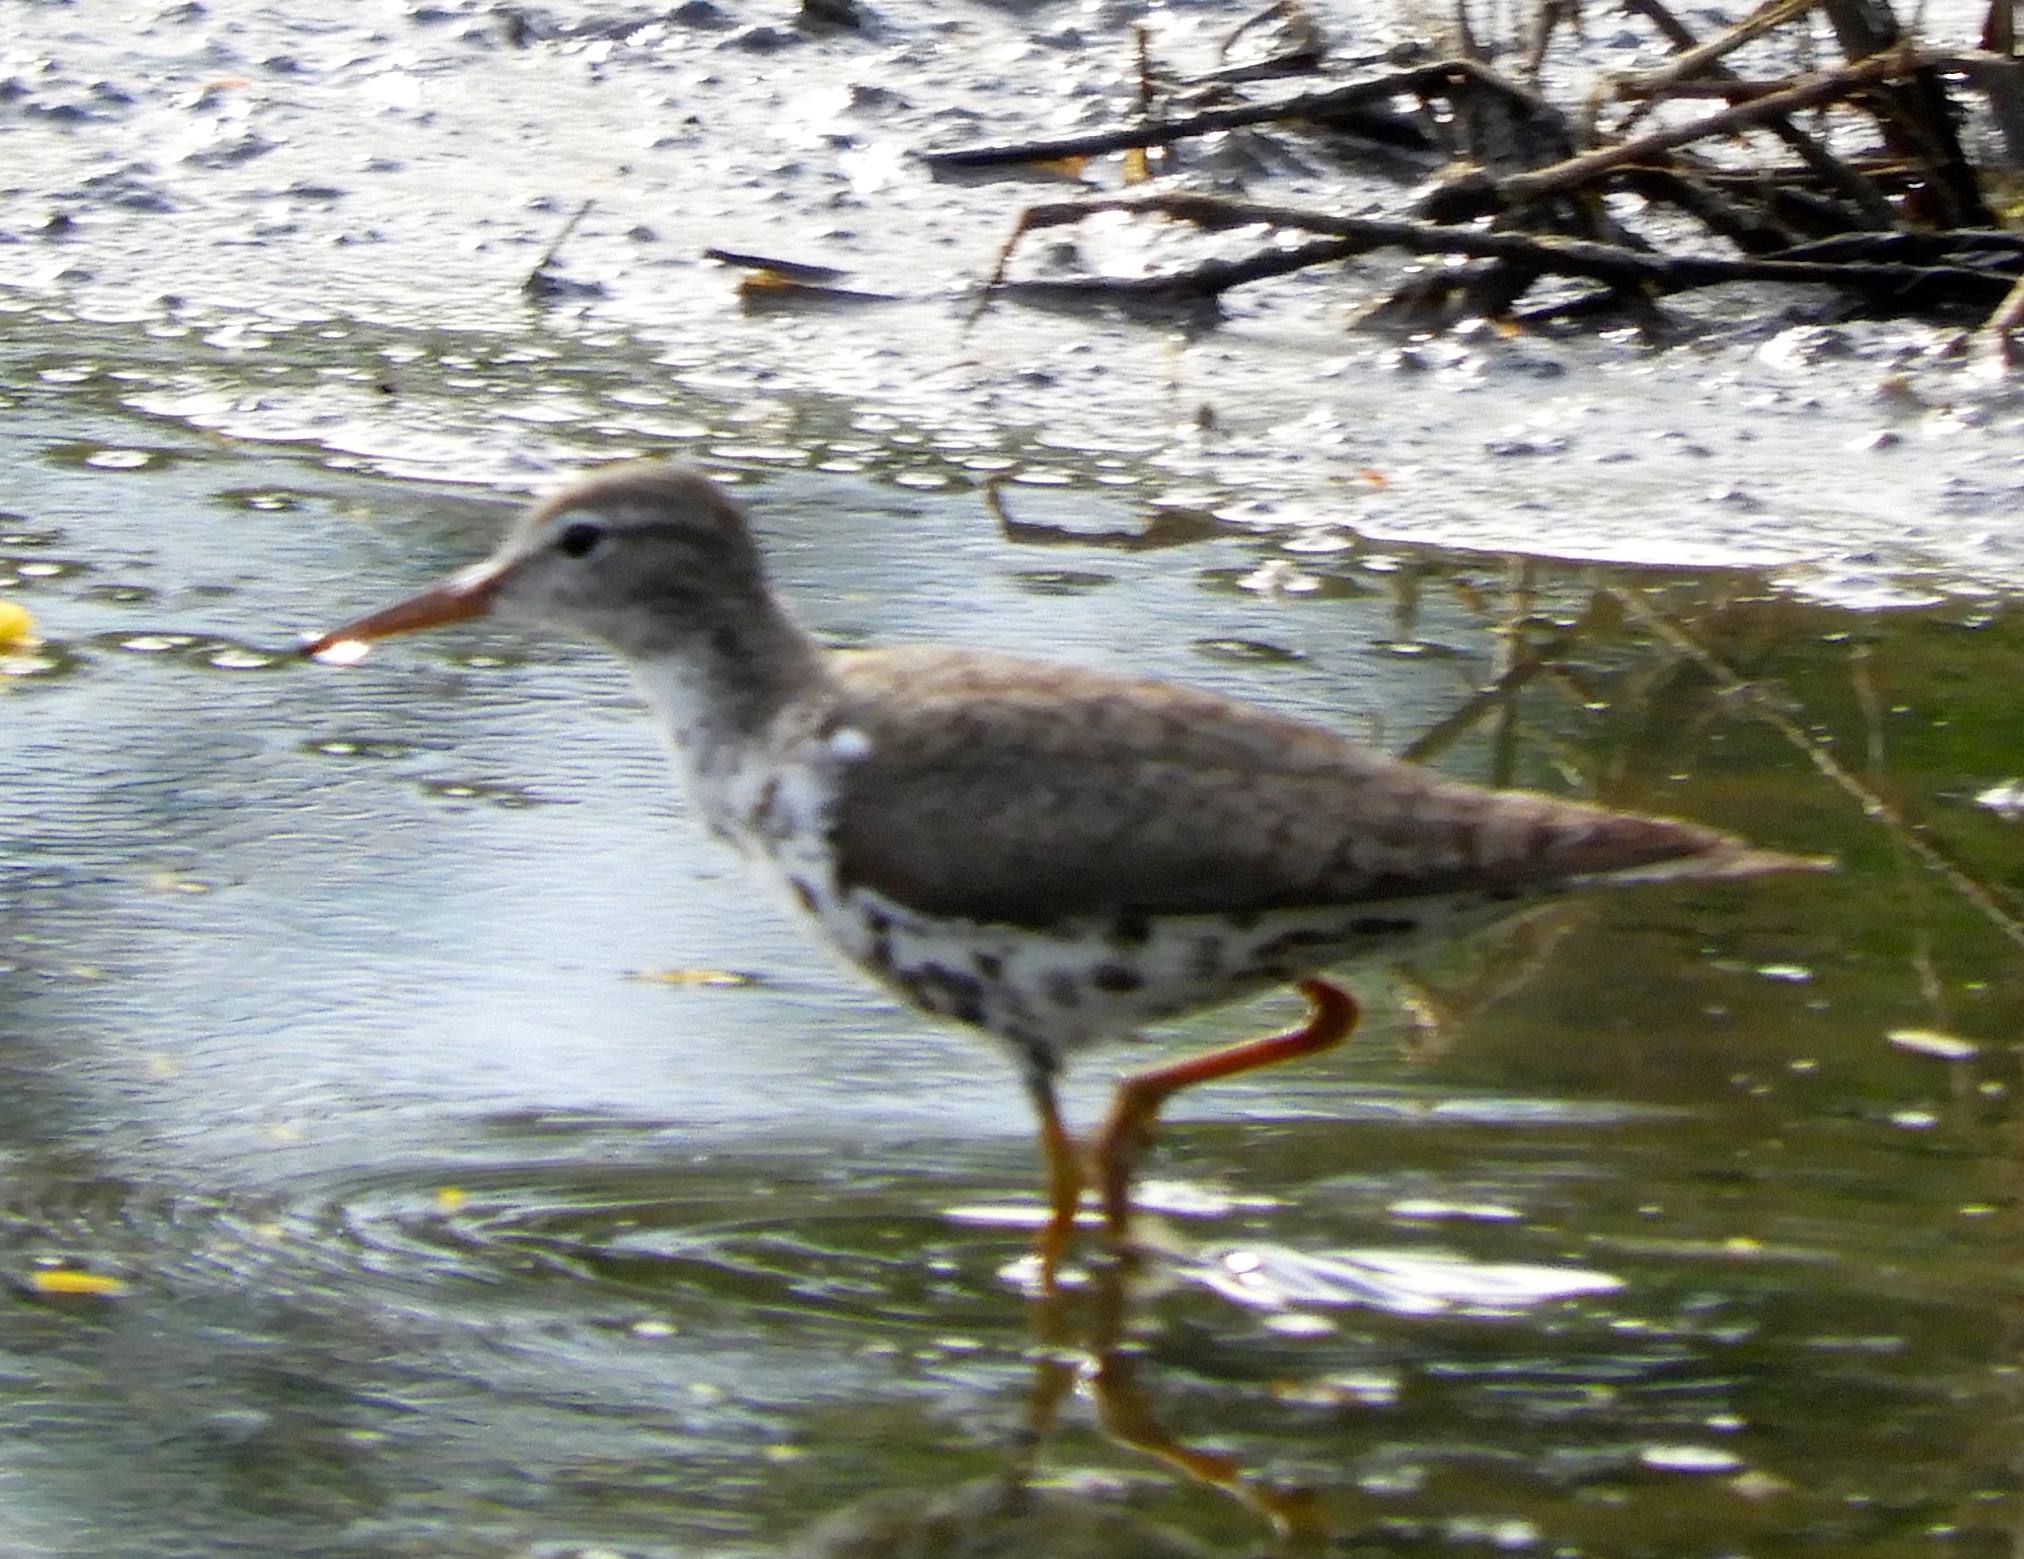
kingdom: Animalia
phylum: Chordata
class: Aves
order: Charadriiformes
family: Scolopacidae
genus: Actitis
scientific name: Actitis macularius
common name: Spotted sandpiper
